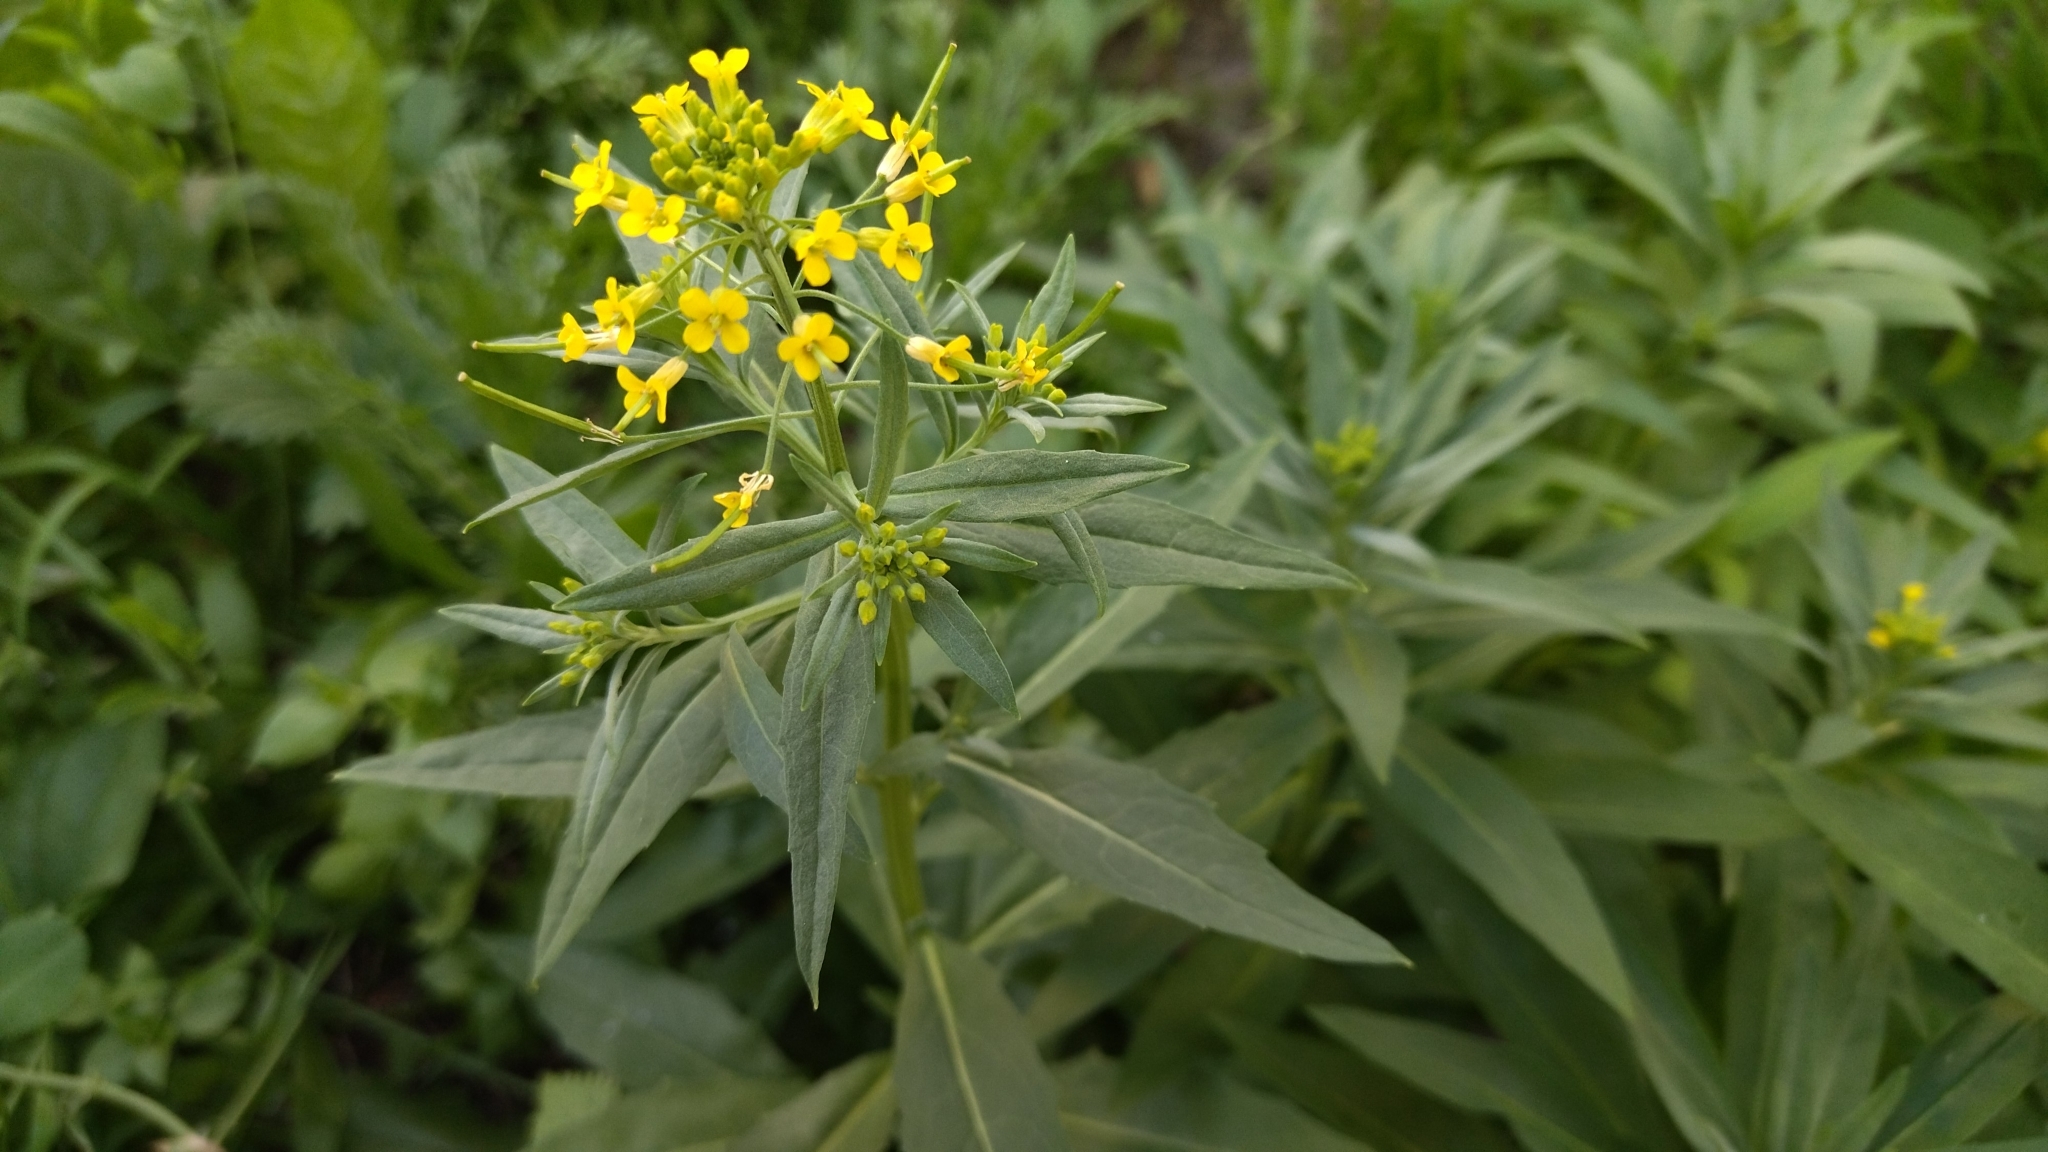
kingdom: Plantae
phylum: Tracheophyta
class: Magnoliopsida
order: Brassicales
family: Brassicaceae
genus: Erysimum
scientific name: Erysimum cheiranthoides
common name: Treacle mustard
